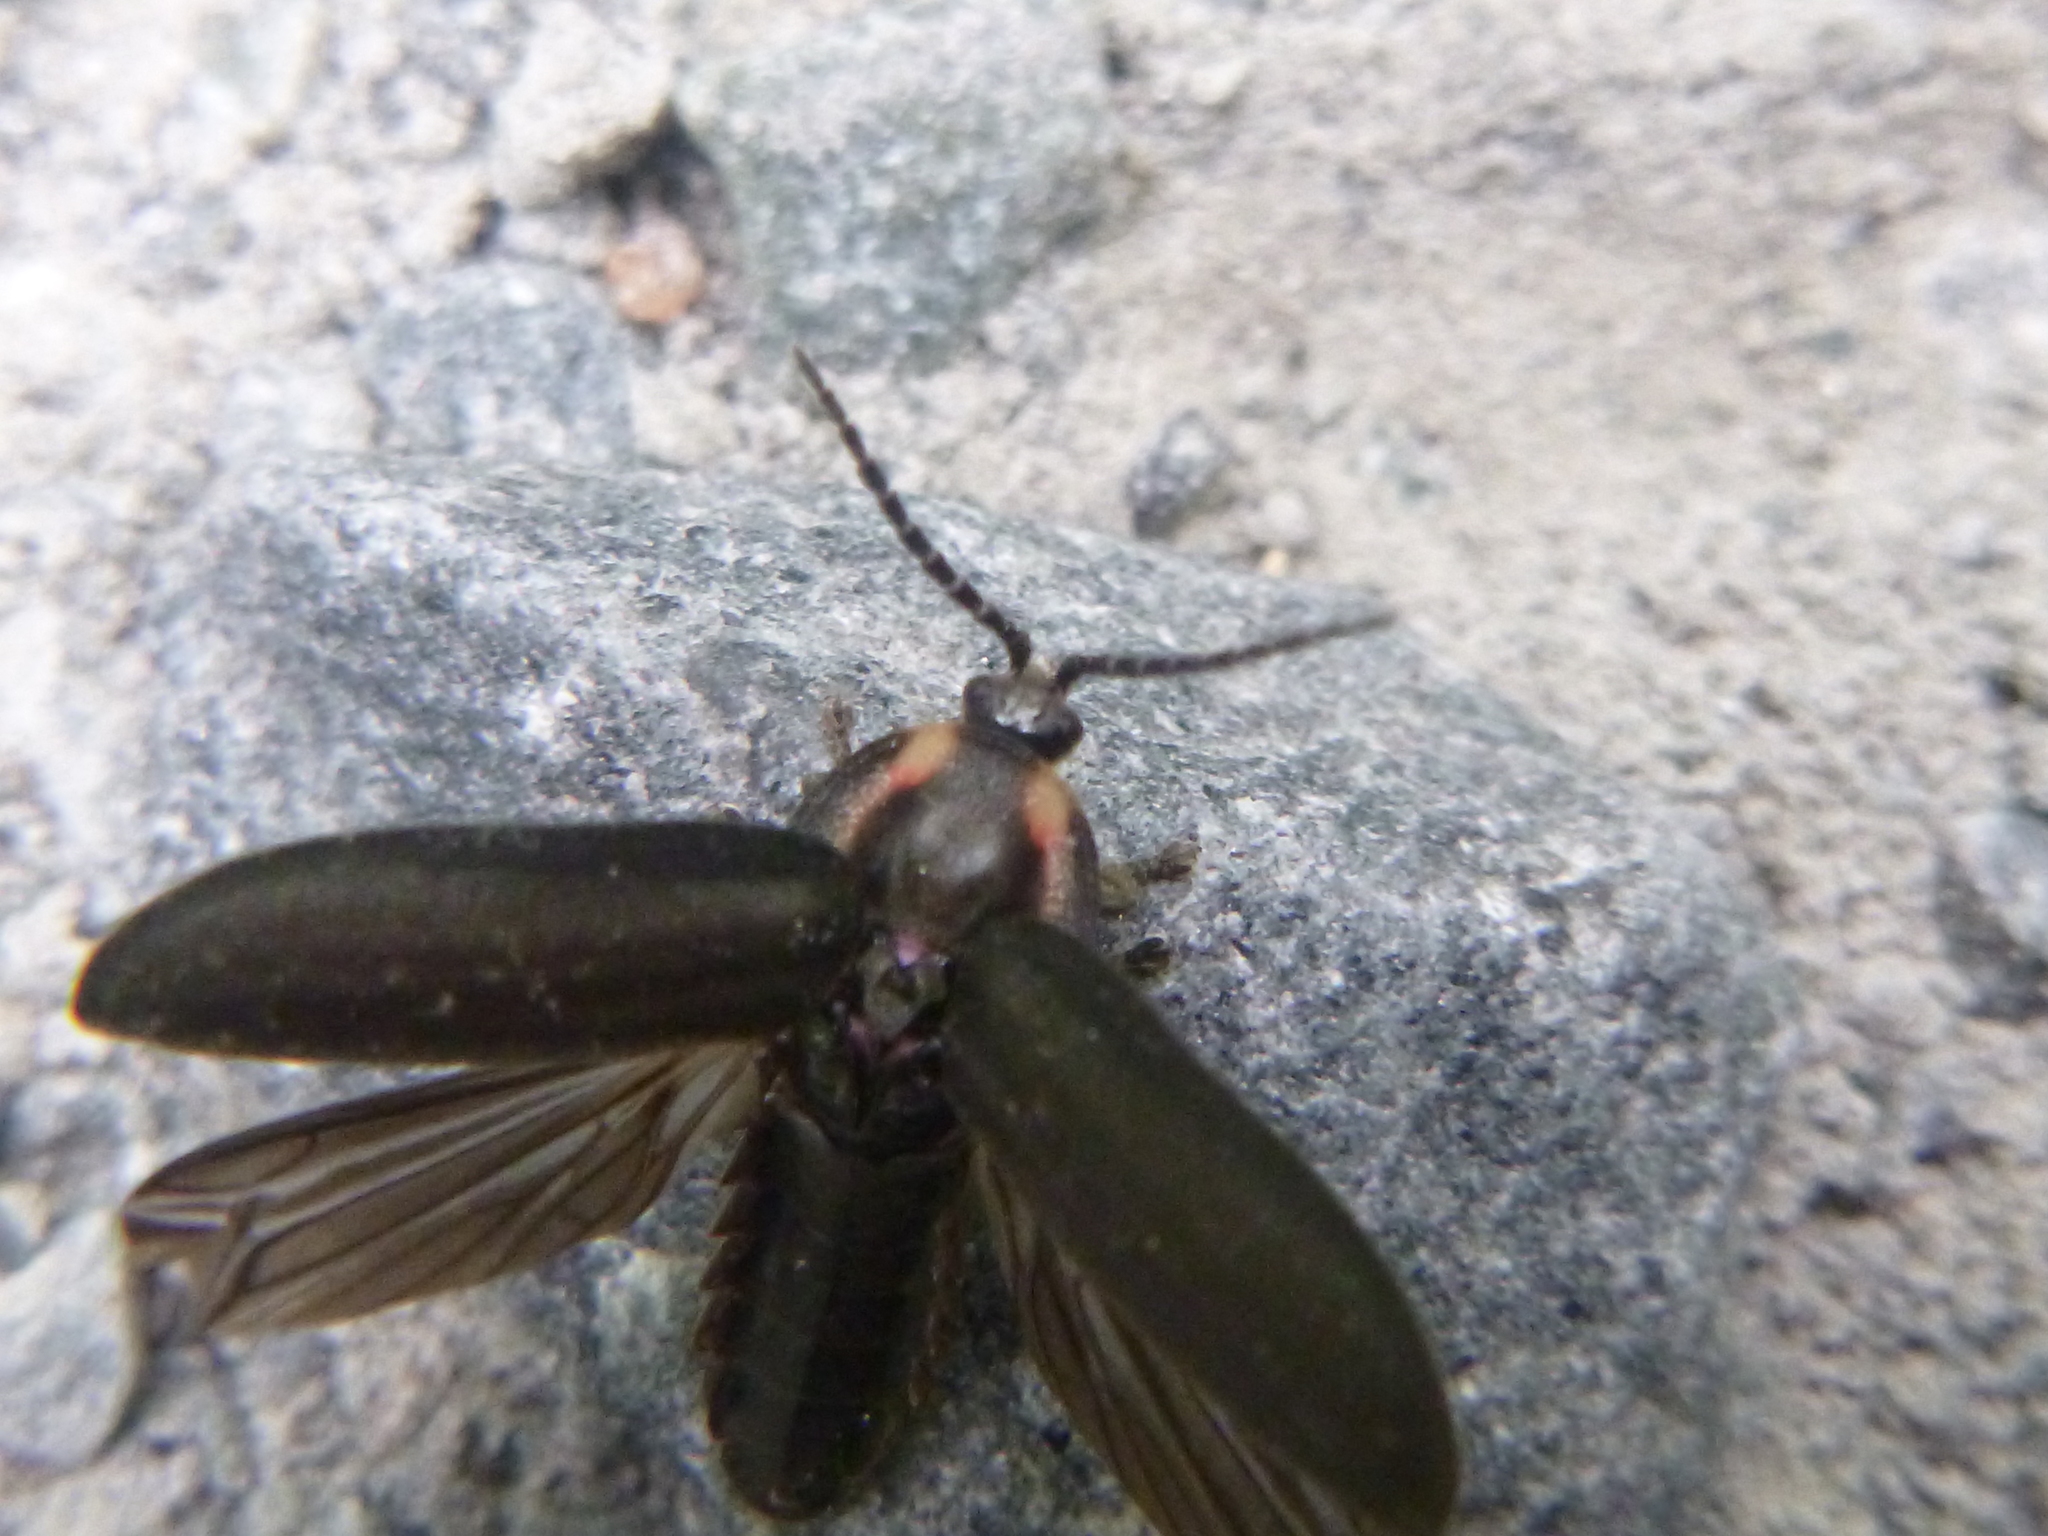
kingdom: Animalia
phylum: Arthropoda
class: Insecta
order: Coleoptera
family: Lampyridae
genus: Photinus
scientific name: Photinus corrusca
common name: Winter firefly
